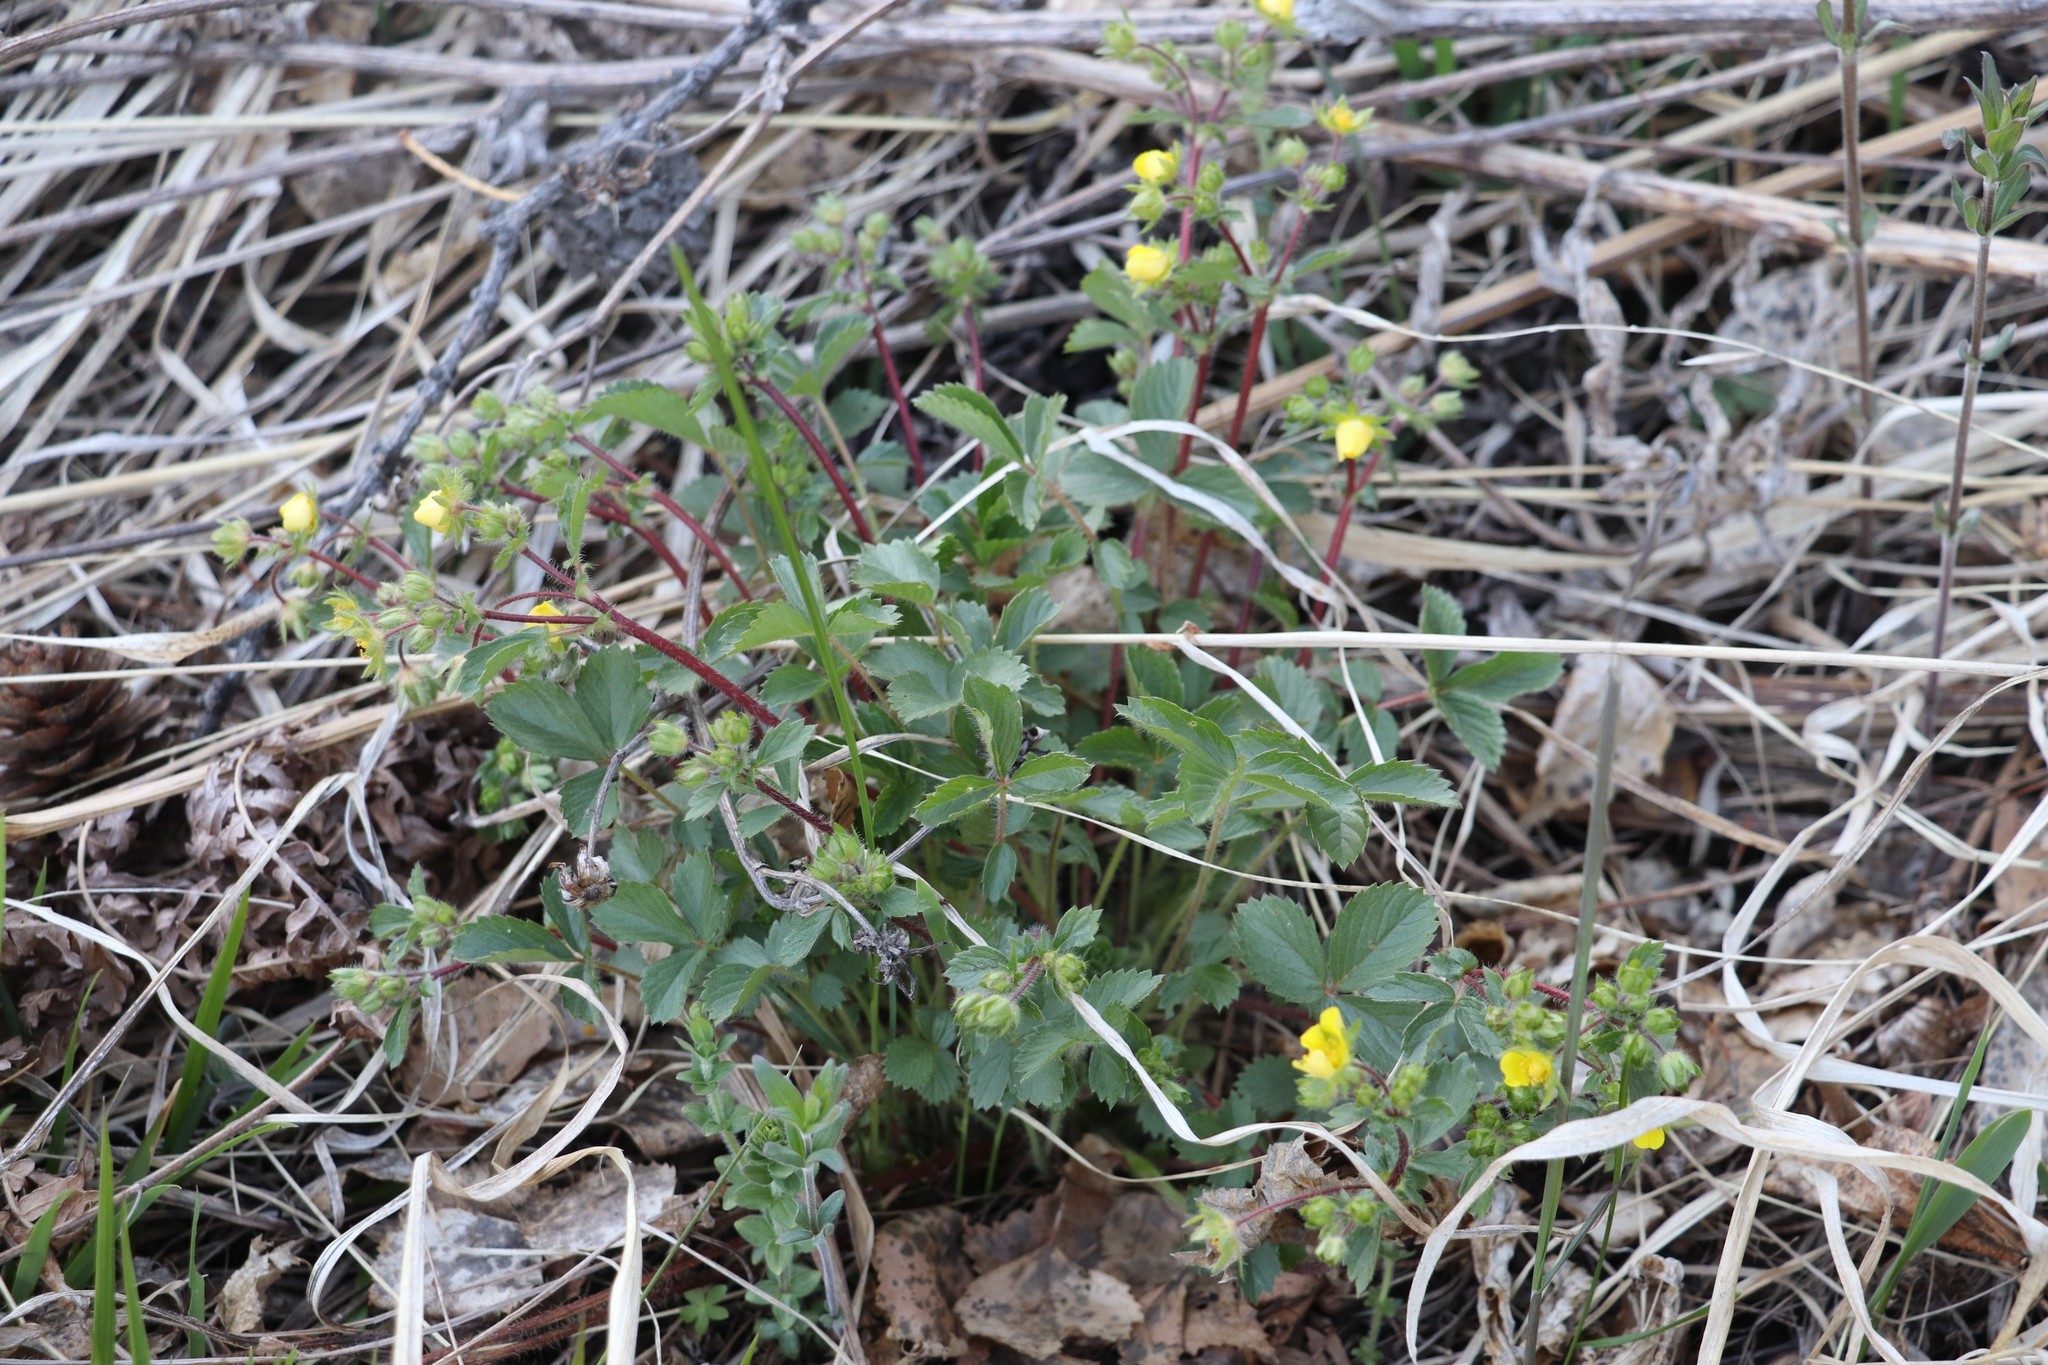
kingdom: Plantae
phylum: Tracheophyta
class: Magnoliopsida
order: Rosales
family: Rosaceae
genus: Potentilla
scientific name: Potentilla fragarioides
